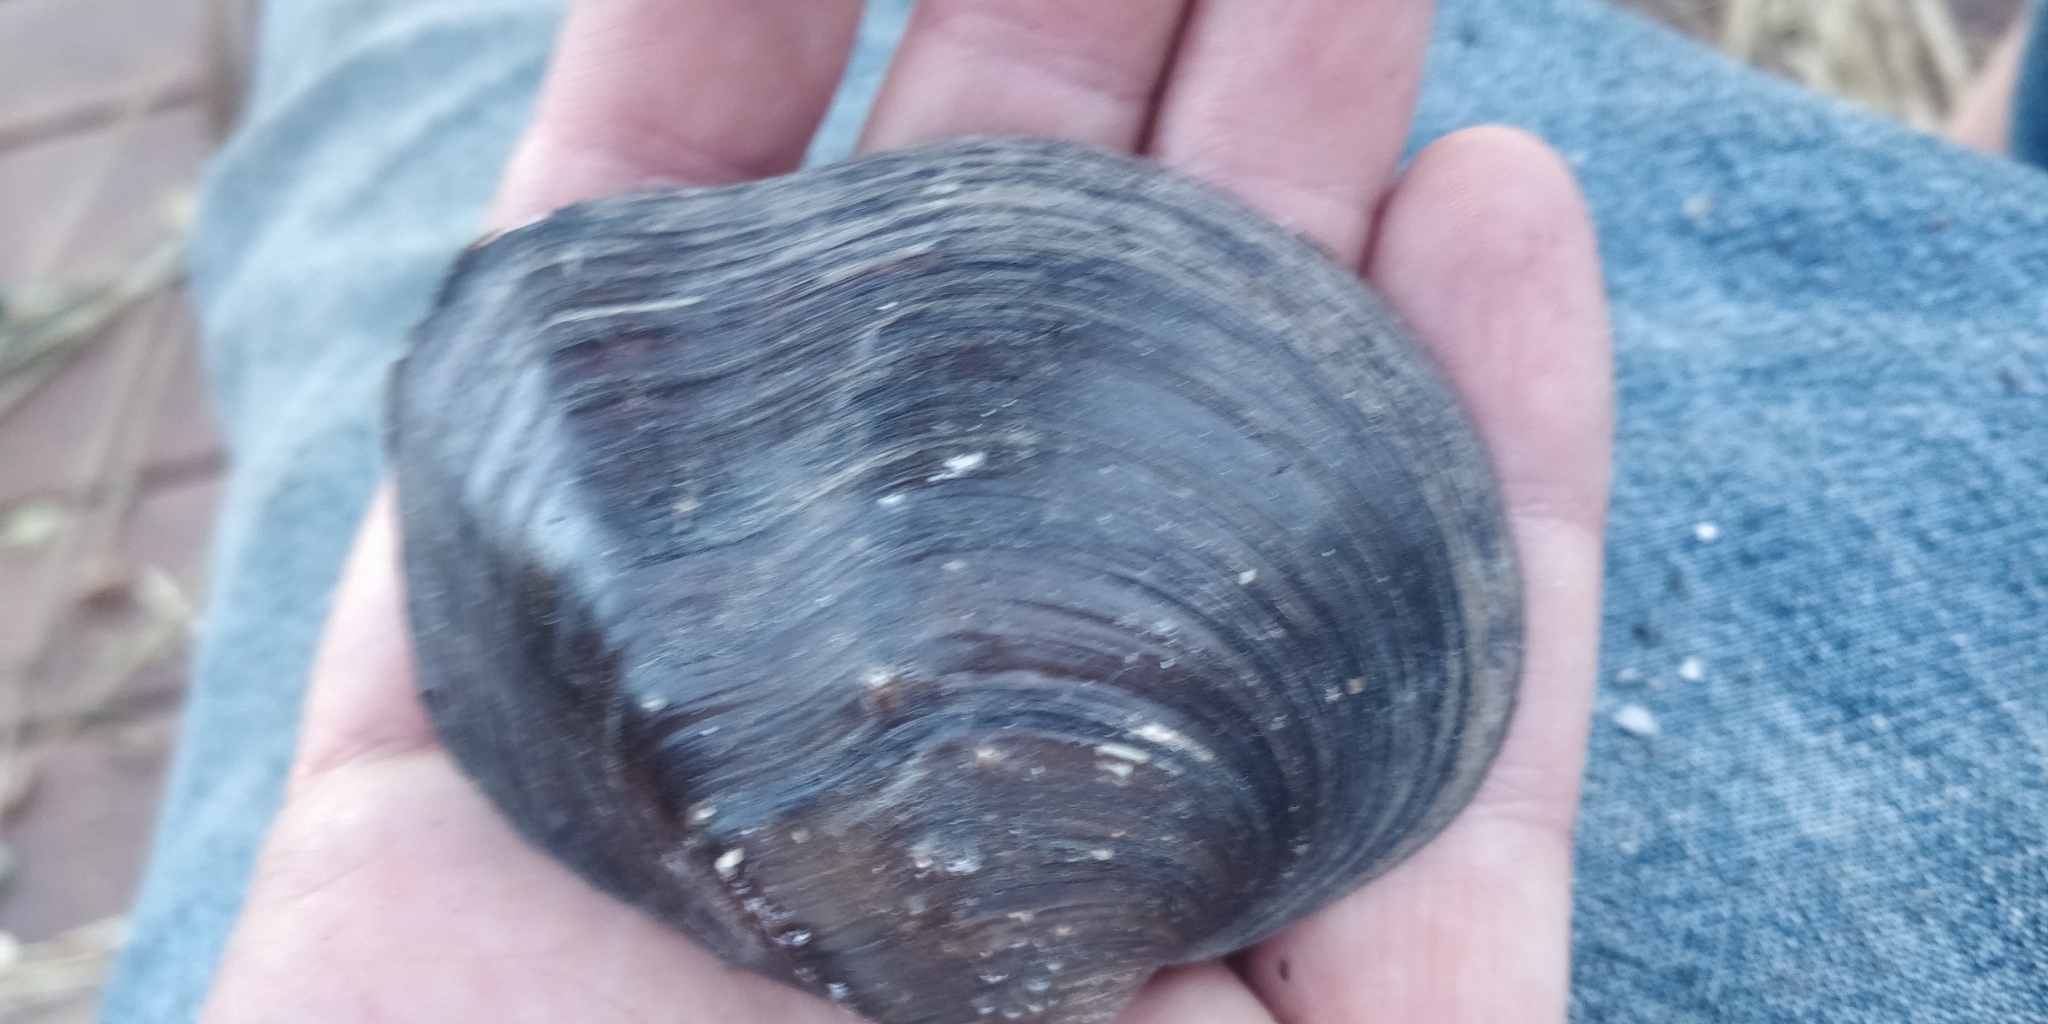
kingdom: Animalia
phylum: Mollusca
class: Bivalvia
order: Unionida
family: Unionidae
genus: Quadrula
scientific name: Quadrula quadrula
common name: Mapleleaf
